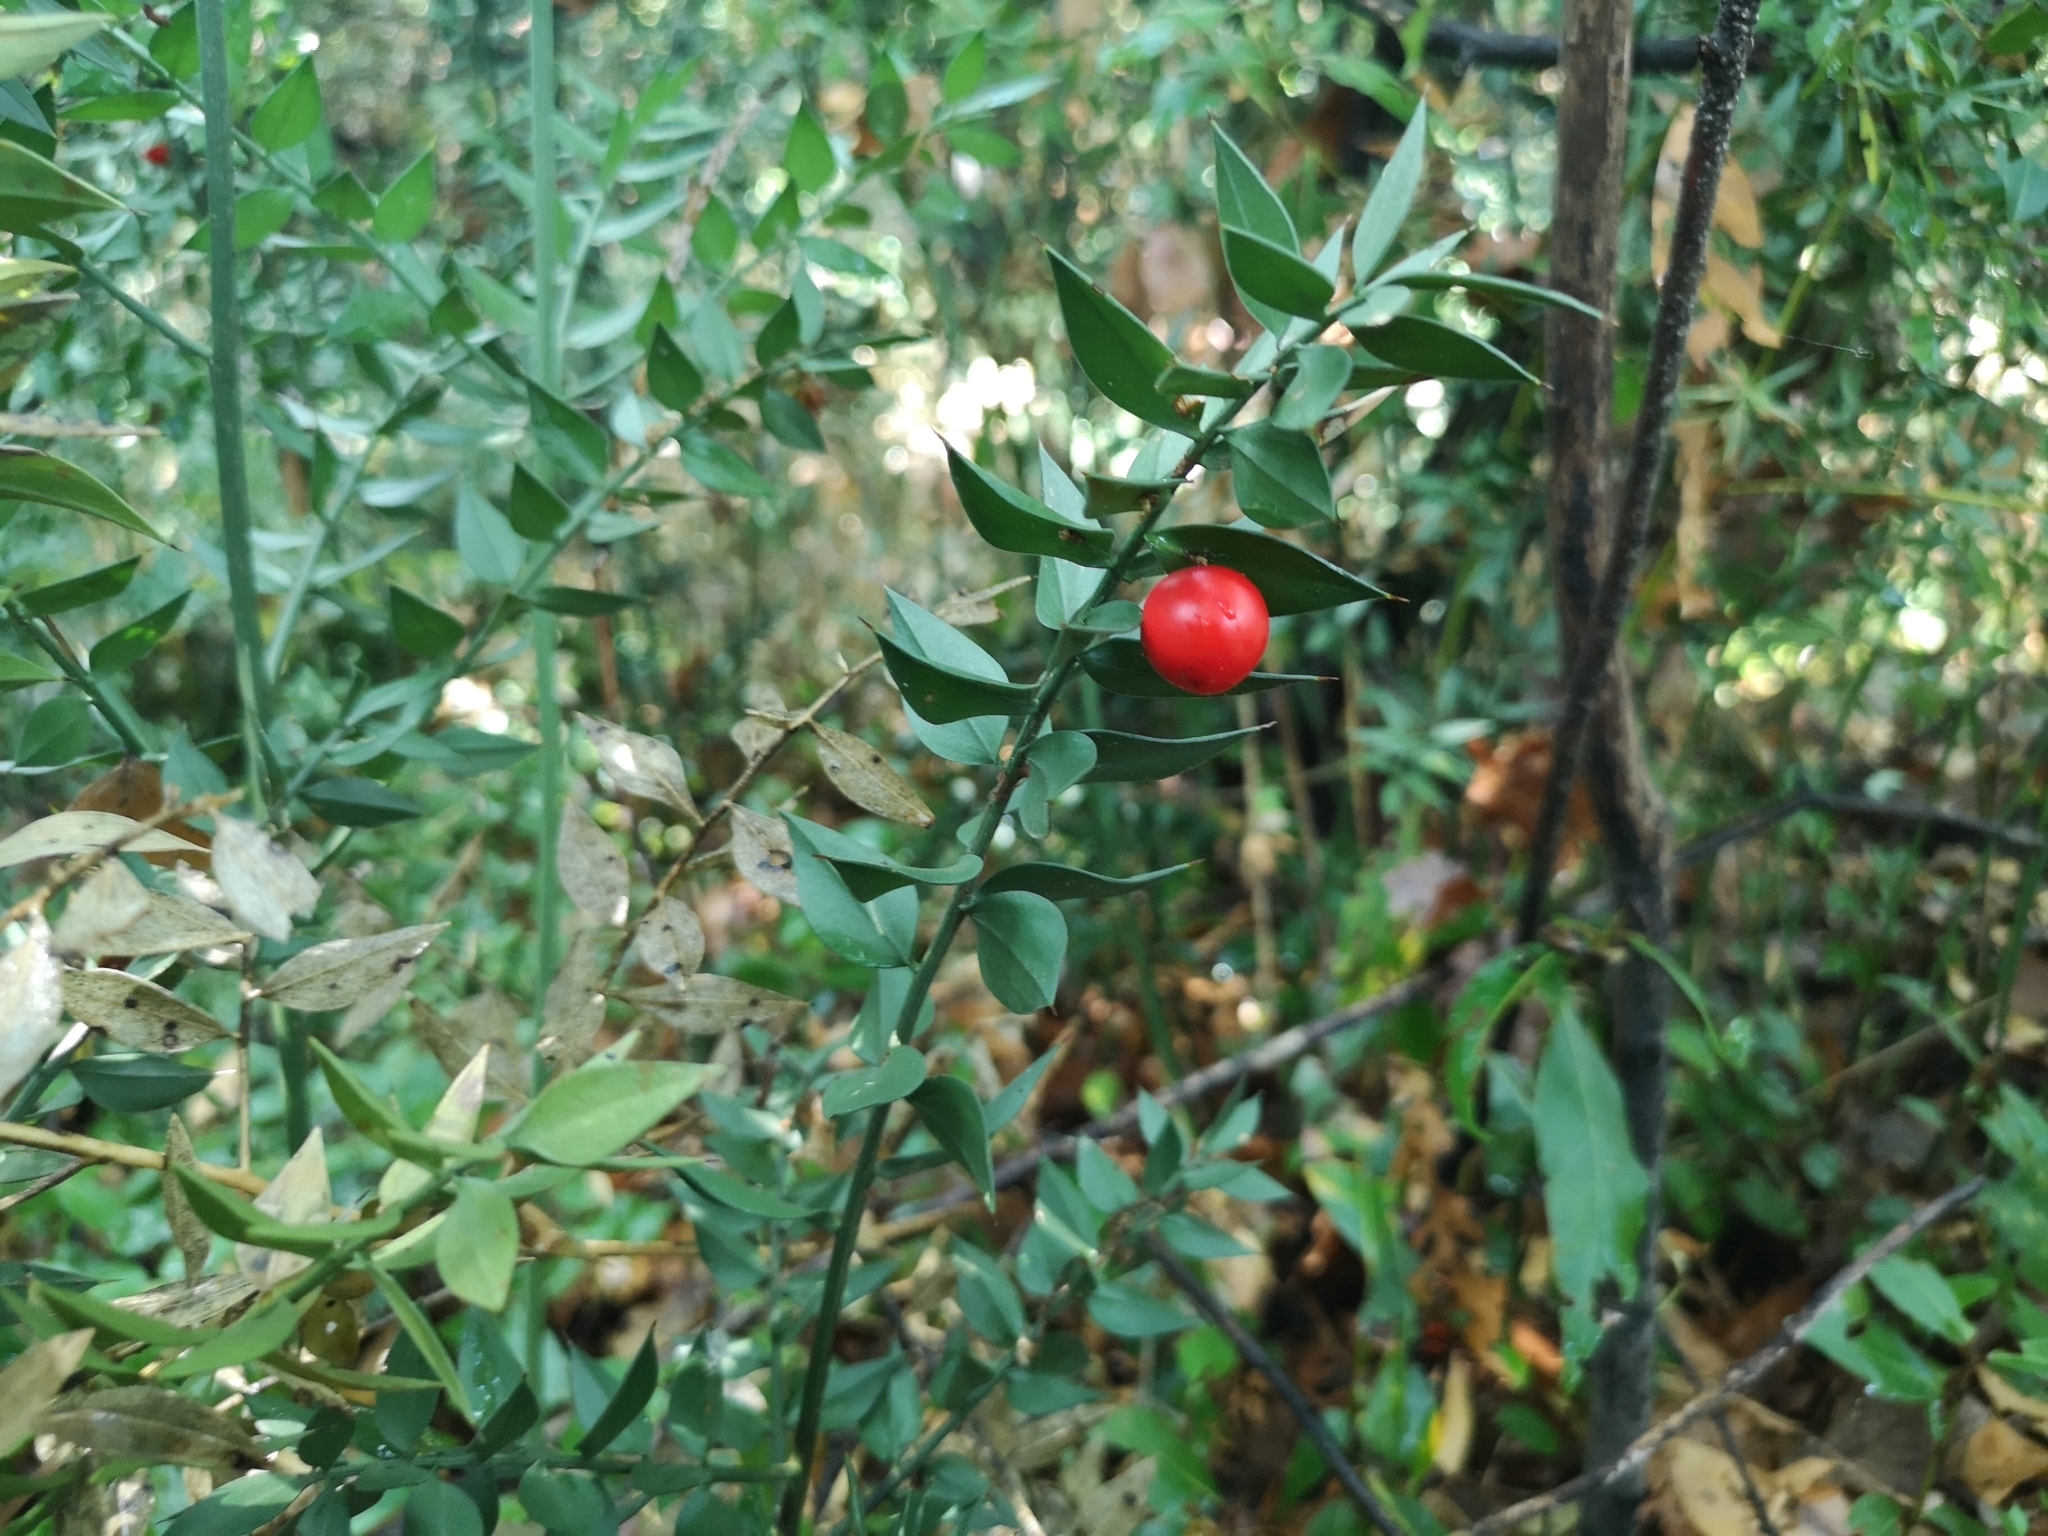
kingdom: Plantae
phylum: Tracheophyta
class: Liliopsida
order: Asparagales
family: Asparagaceae
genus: Ruscus
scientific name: Ruscus aculeatus
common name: Butcher's-broom
